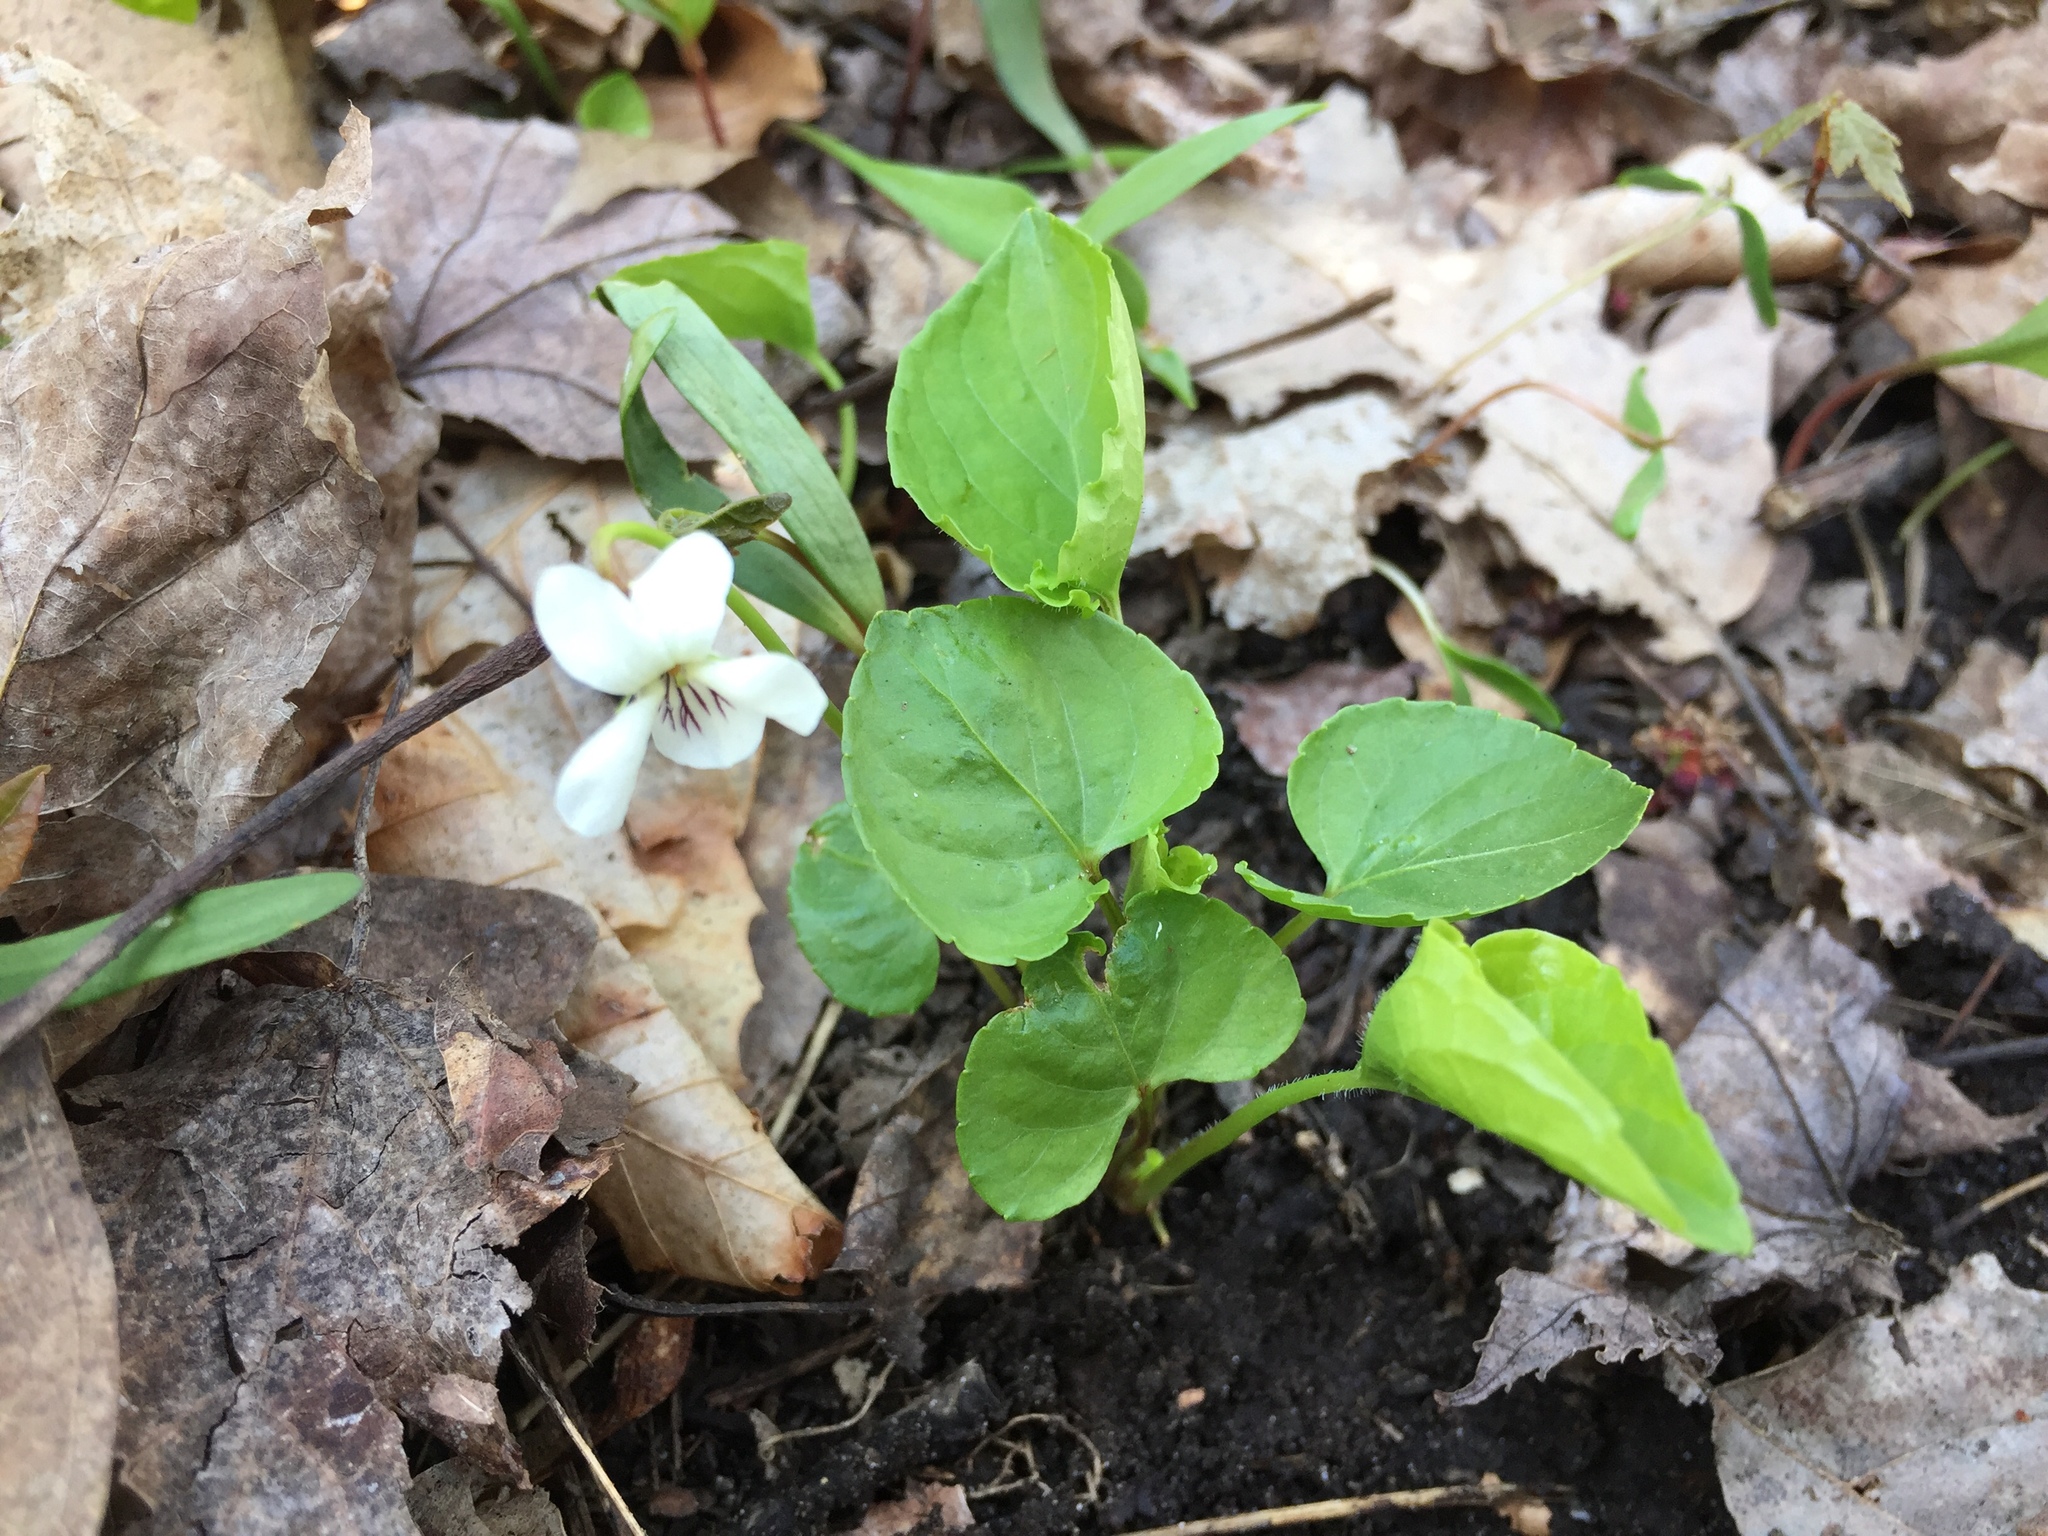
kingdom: Plantae
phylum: Tracheophyta
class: Magnoliopsida
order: Malpighiales
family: Violaceae
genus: Viola
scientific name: Viola blanda
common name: Sweet white violet
